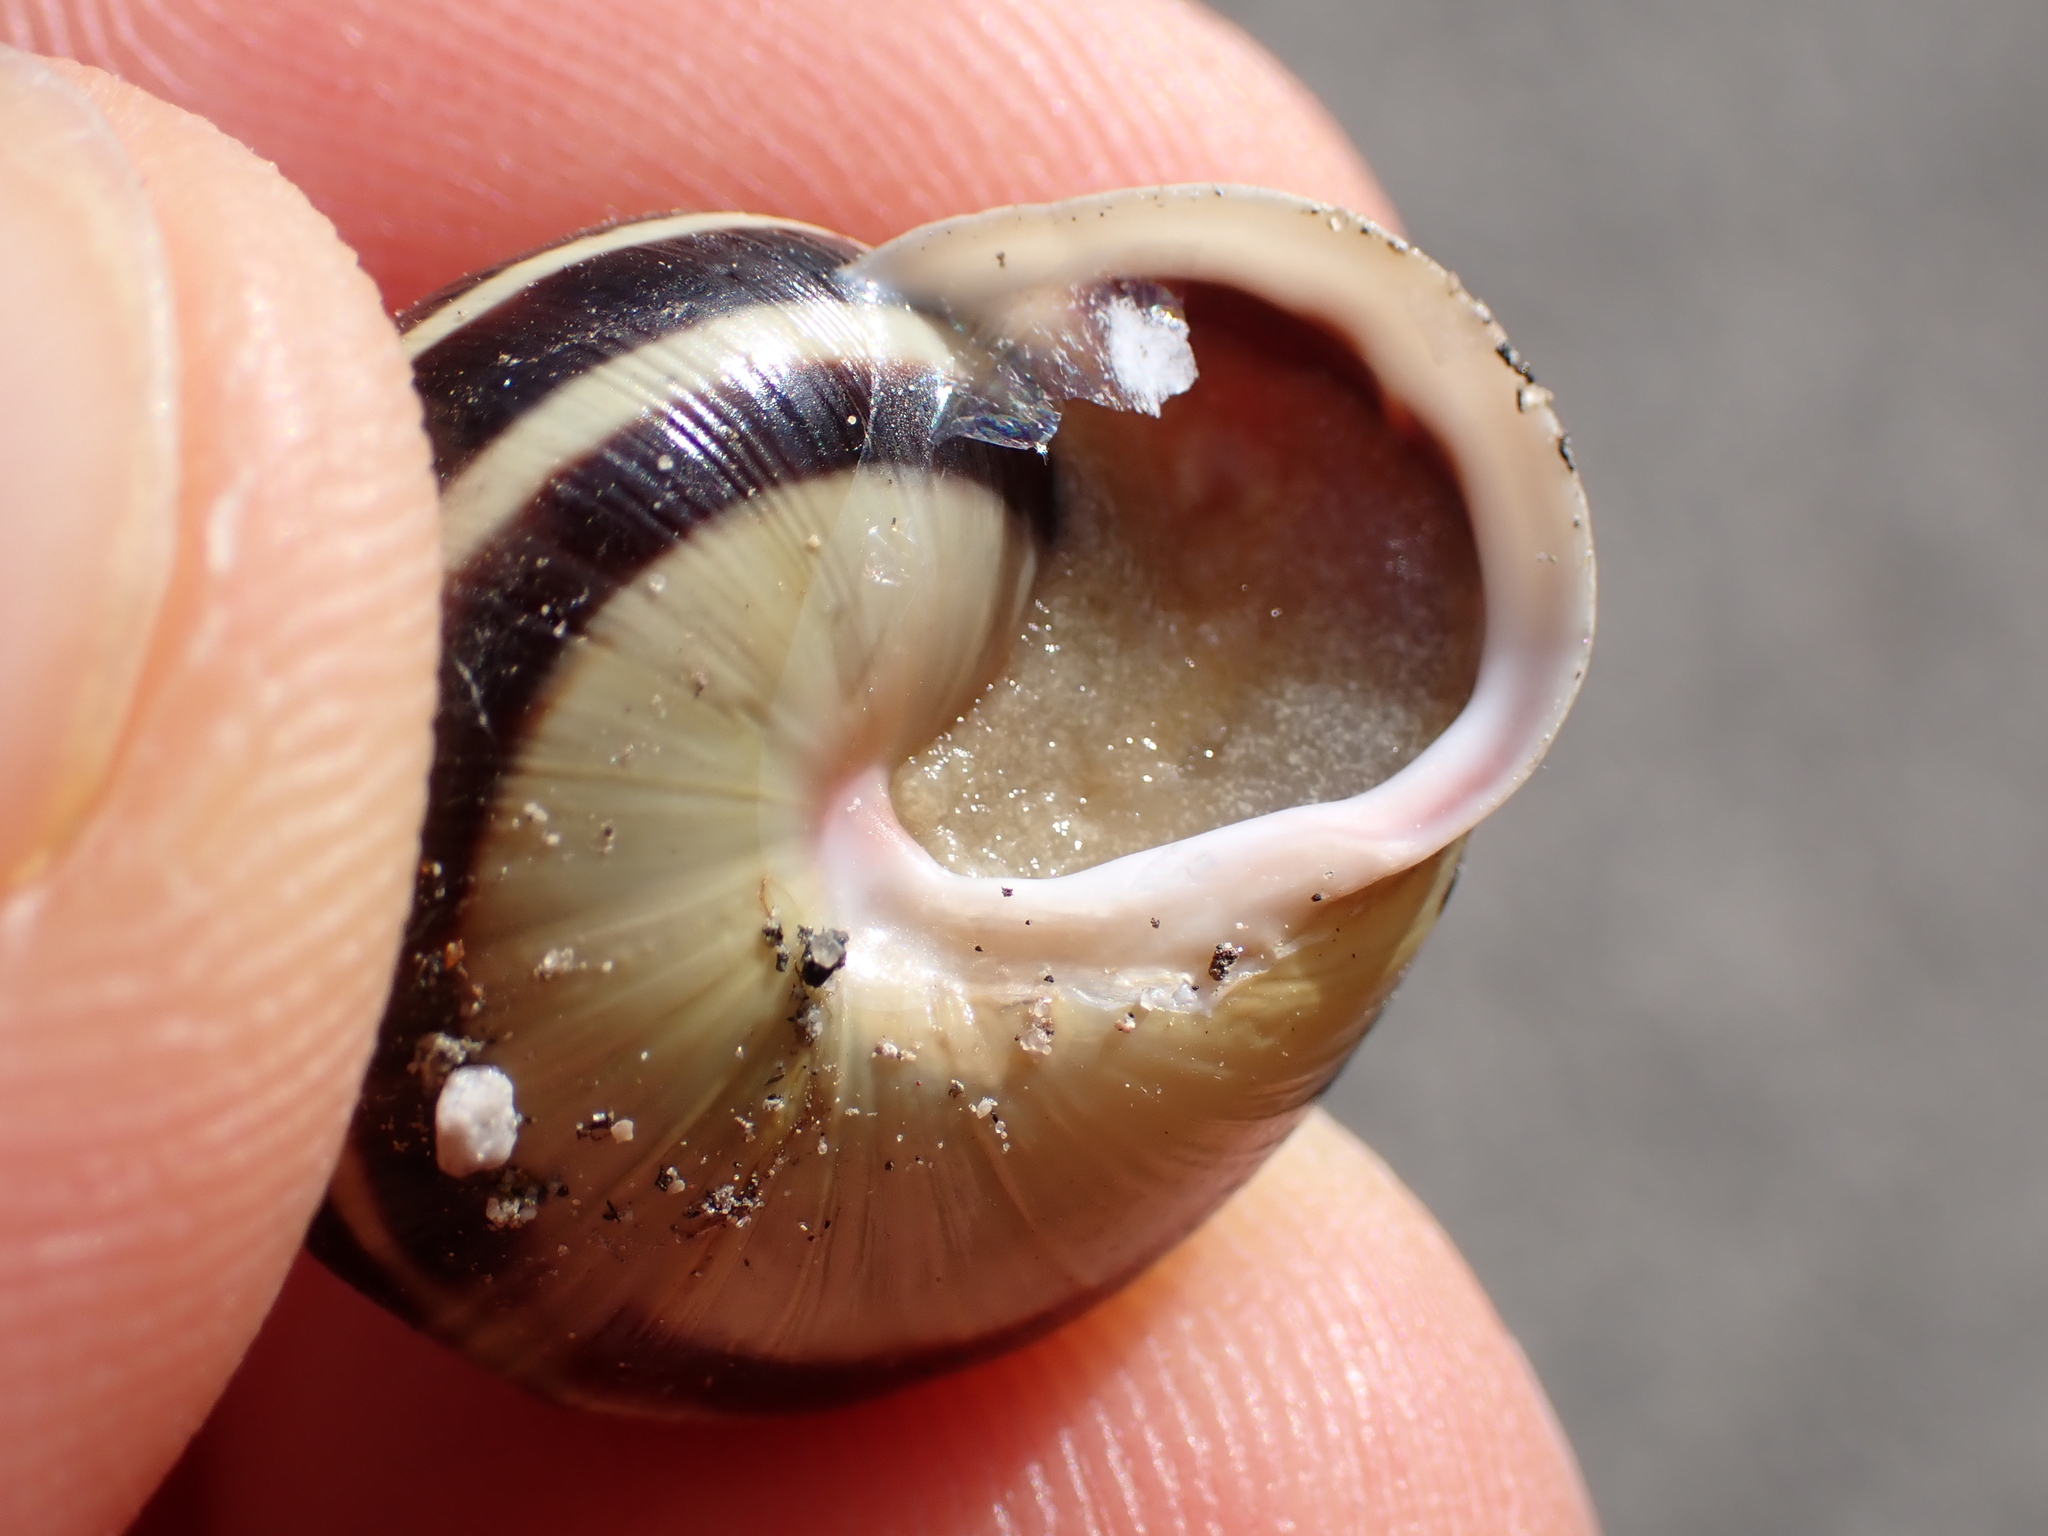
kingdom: Animalia
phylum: Mollusca
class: Gastropoda
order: Stylommatophora
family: Helicidae
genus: Cepaea
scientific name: Cepaea hortensis
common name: White-lip gardensnail
